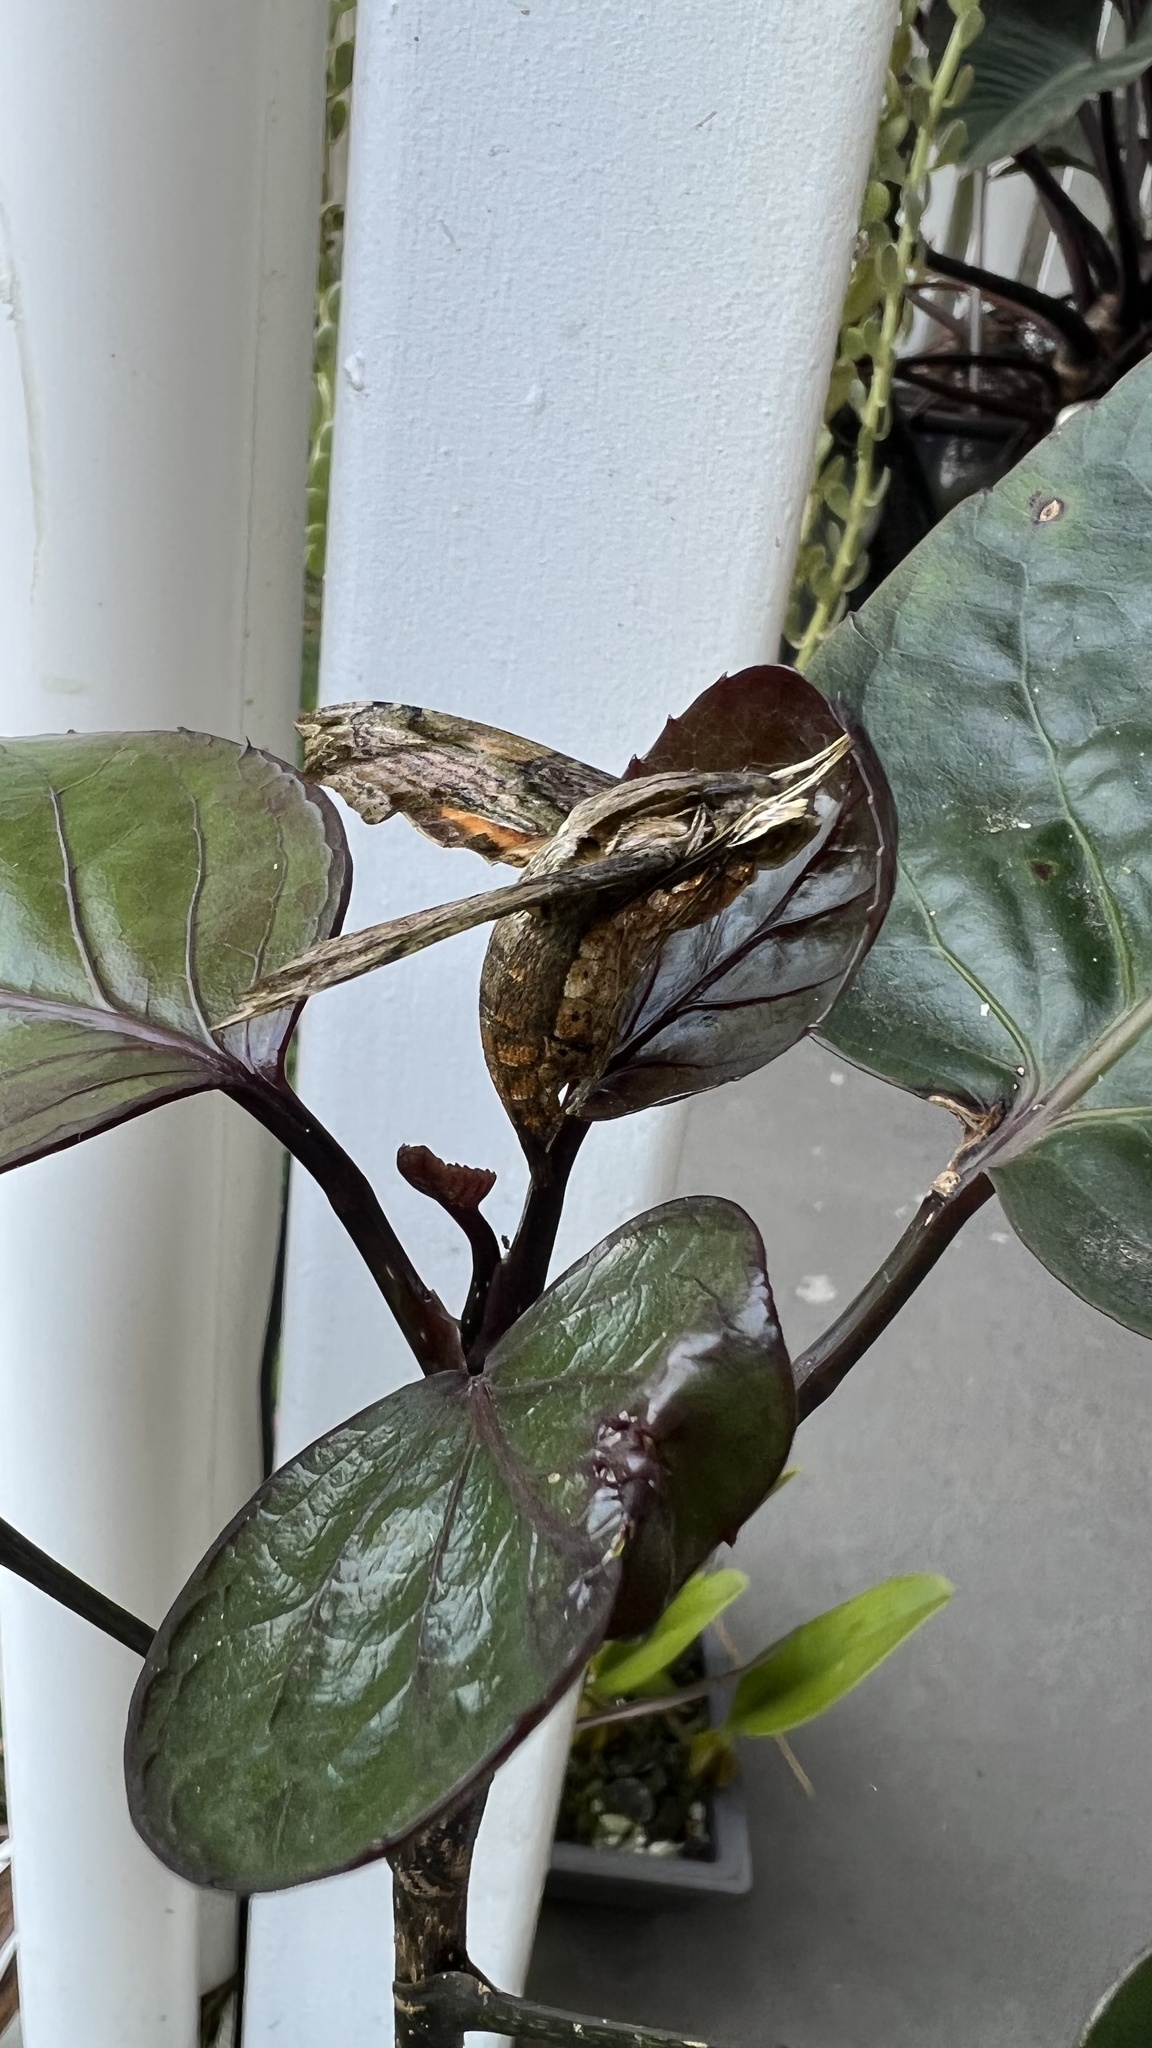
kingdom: Animalia
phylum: Arthropoda
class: Insecta
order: Lepidoptera
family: Sphingidae
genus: Eupanacra
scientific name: Eupanacra splendens
